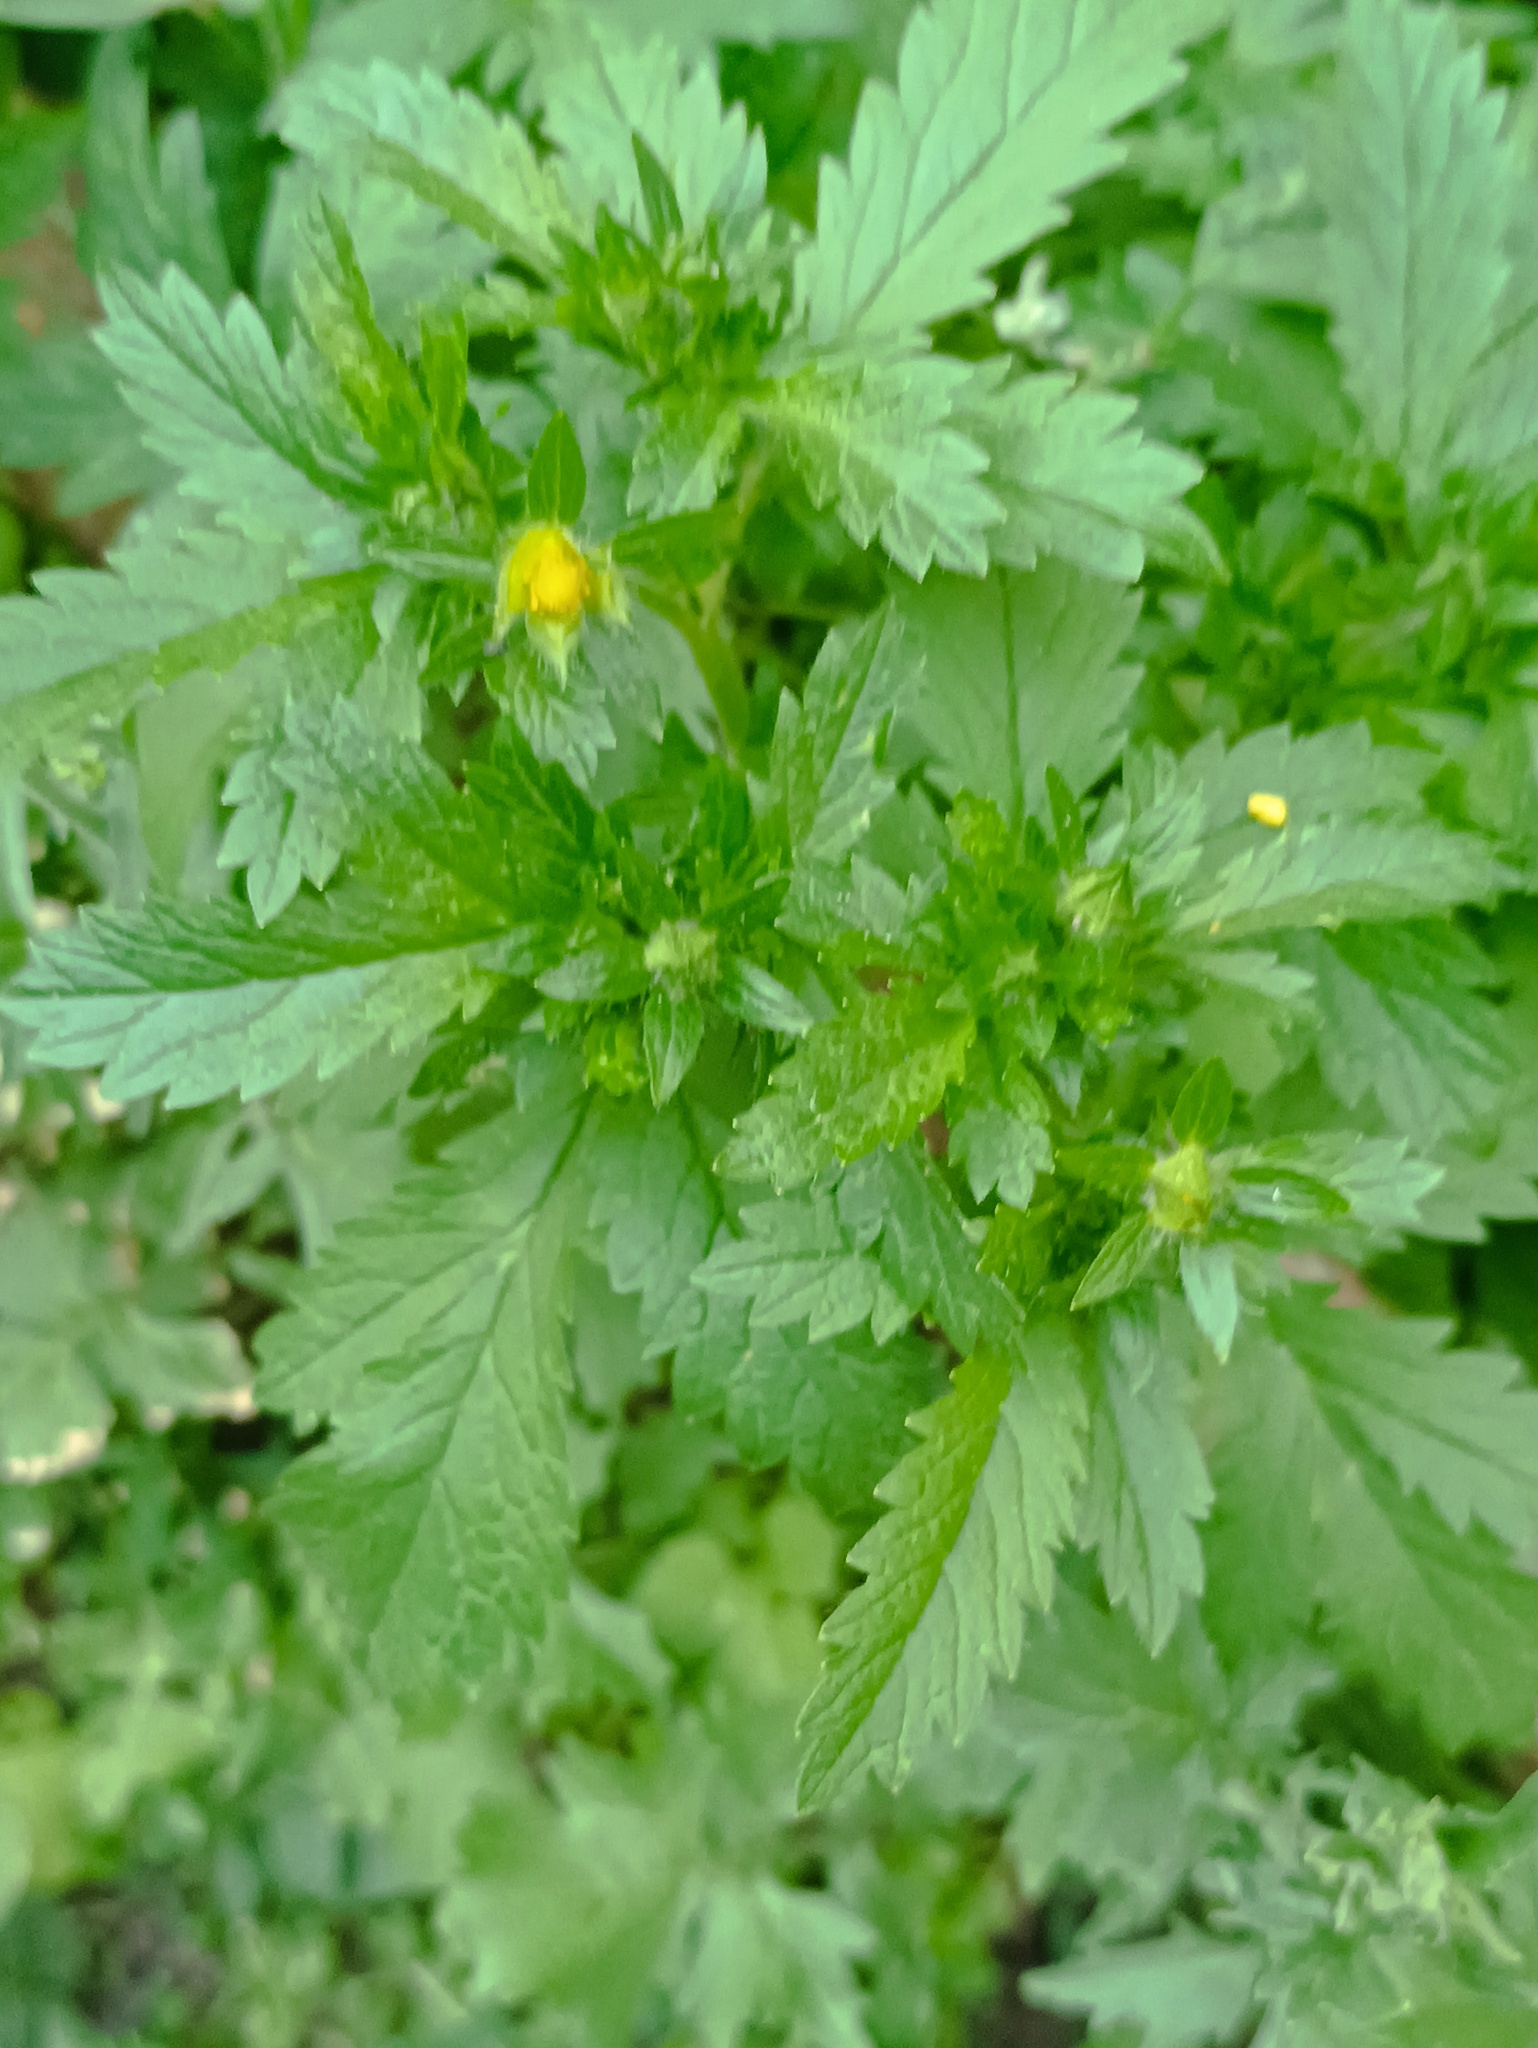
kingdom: Plantae
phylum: Tracheophyta
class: Magnoliopsida
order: Rosales
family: Rosaceae
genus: Potentilla
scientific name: Potentilla norvegica
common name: Ternate-leaved cinquefoil
